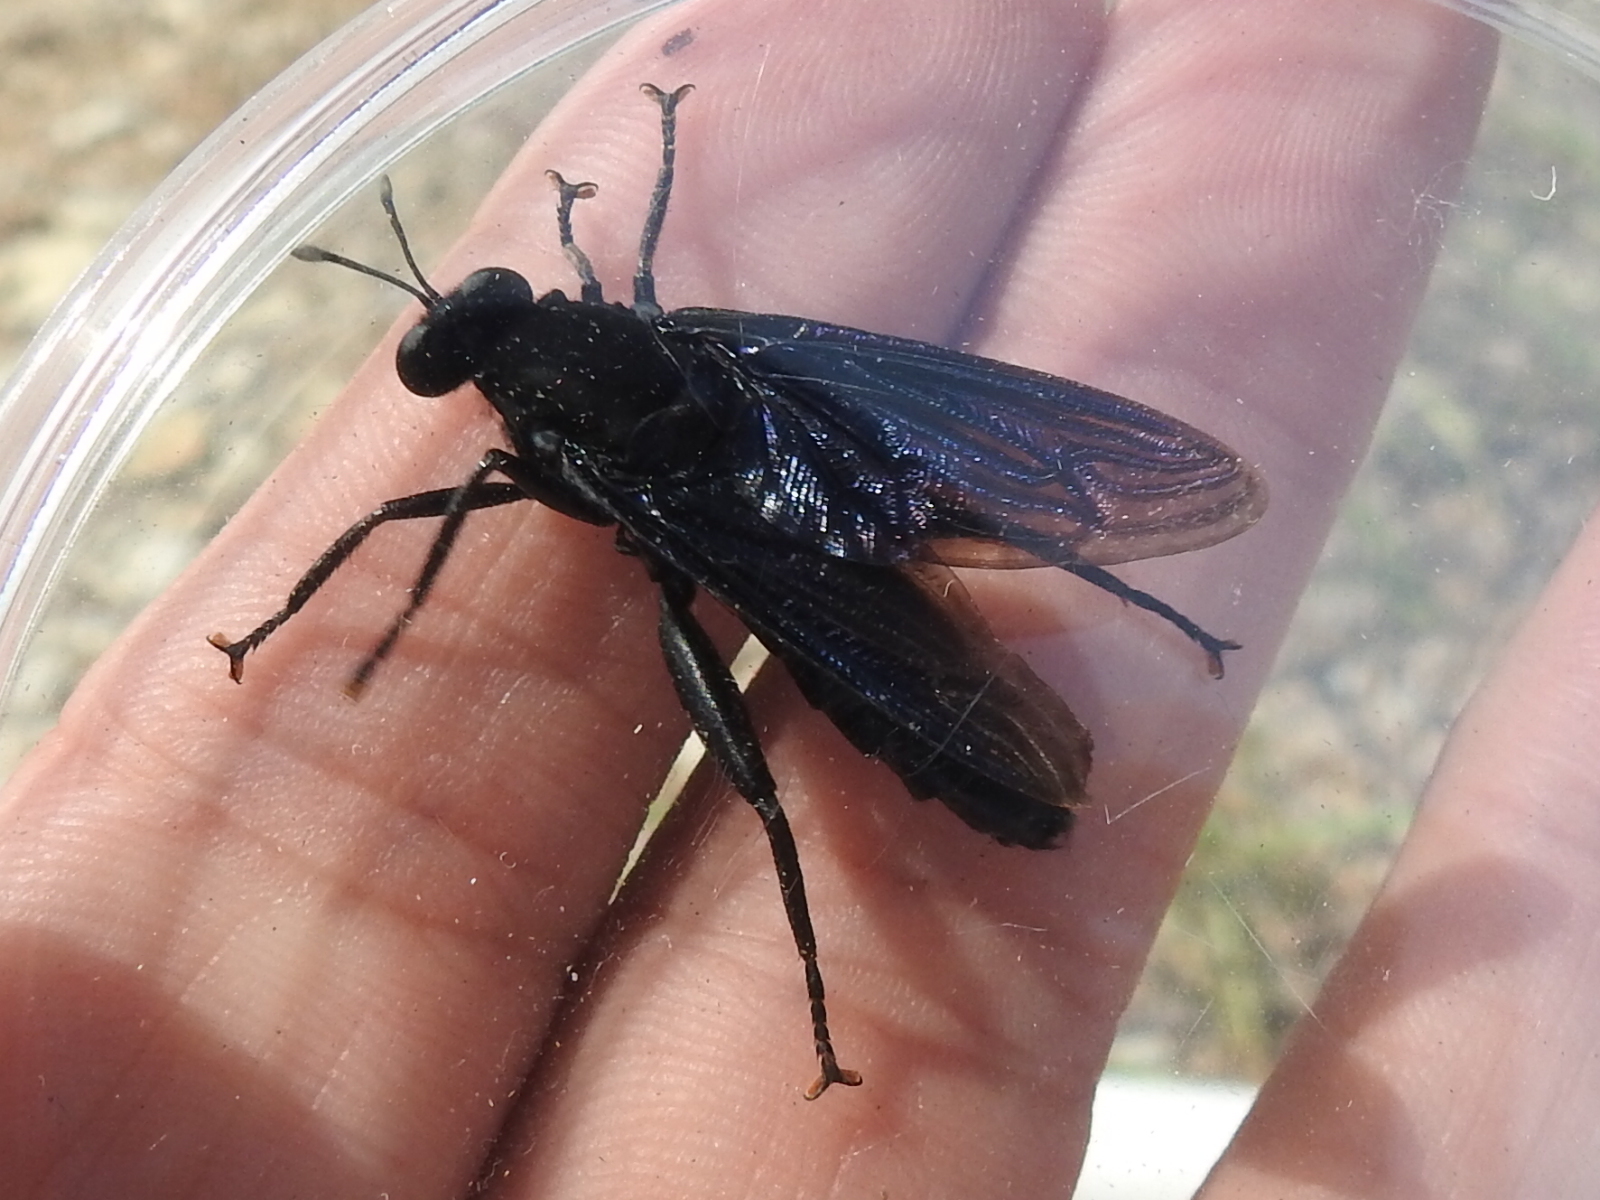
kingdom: Animalia
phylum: Arthropoda
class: Insecta
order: Diptera
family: Mydidae
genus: Mydas
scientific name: Mydas clavatus
